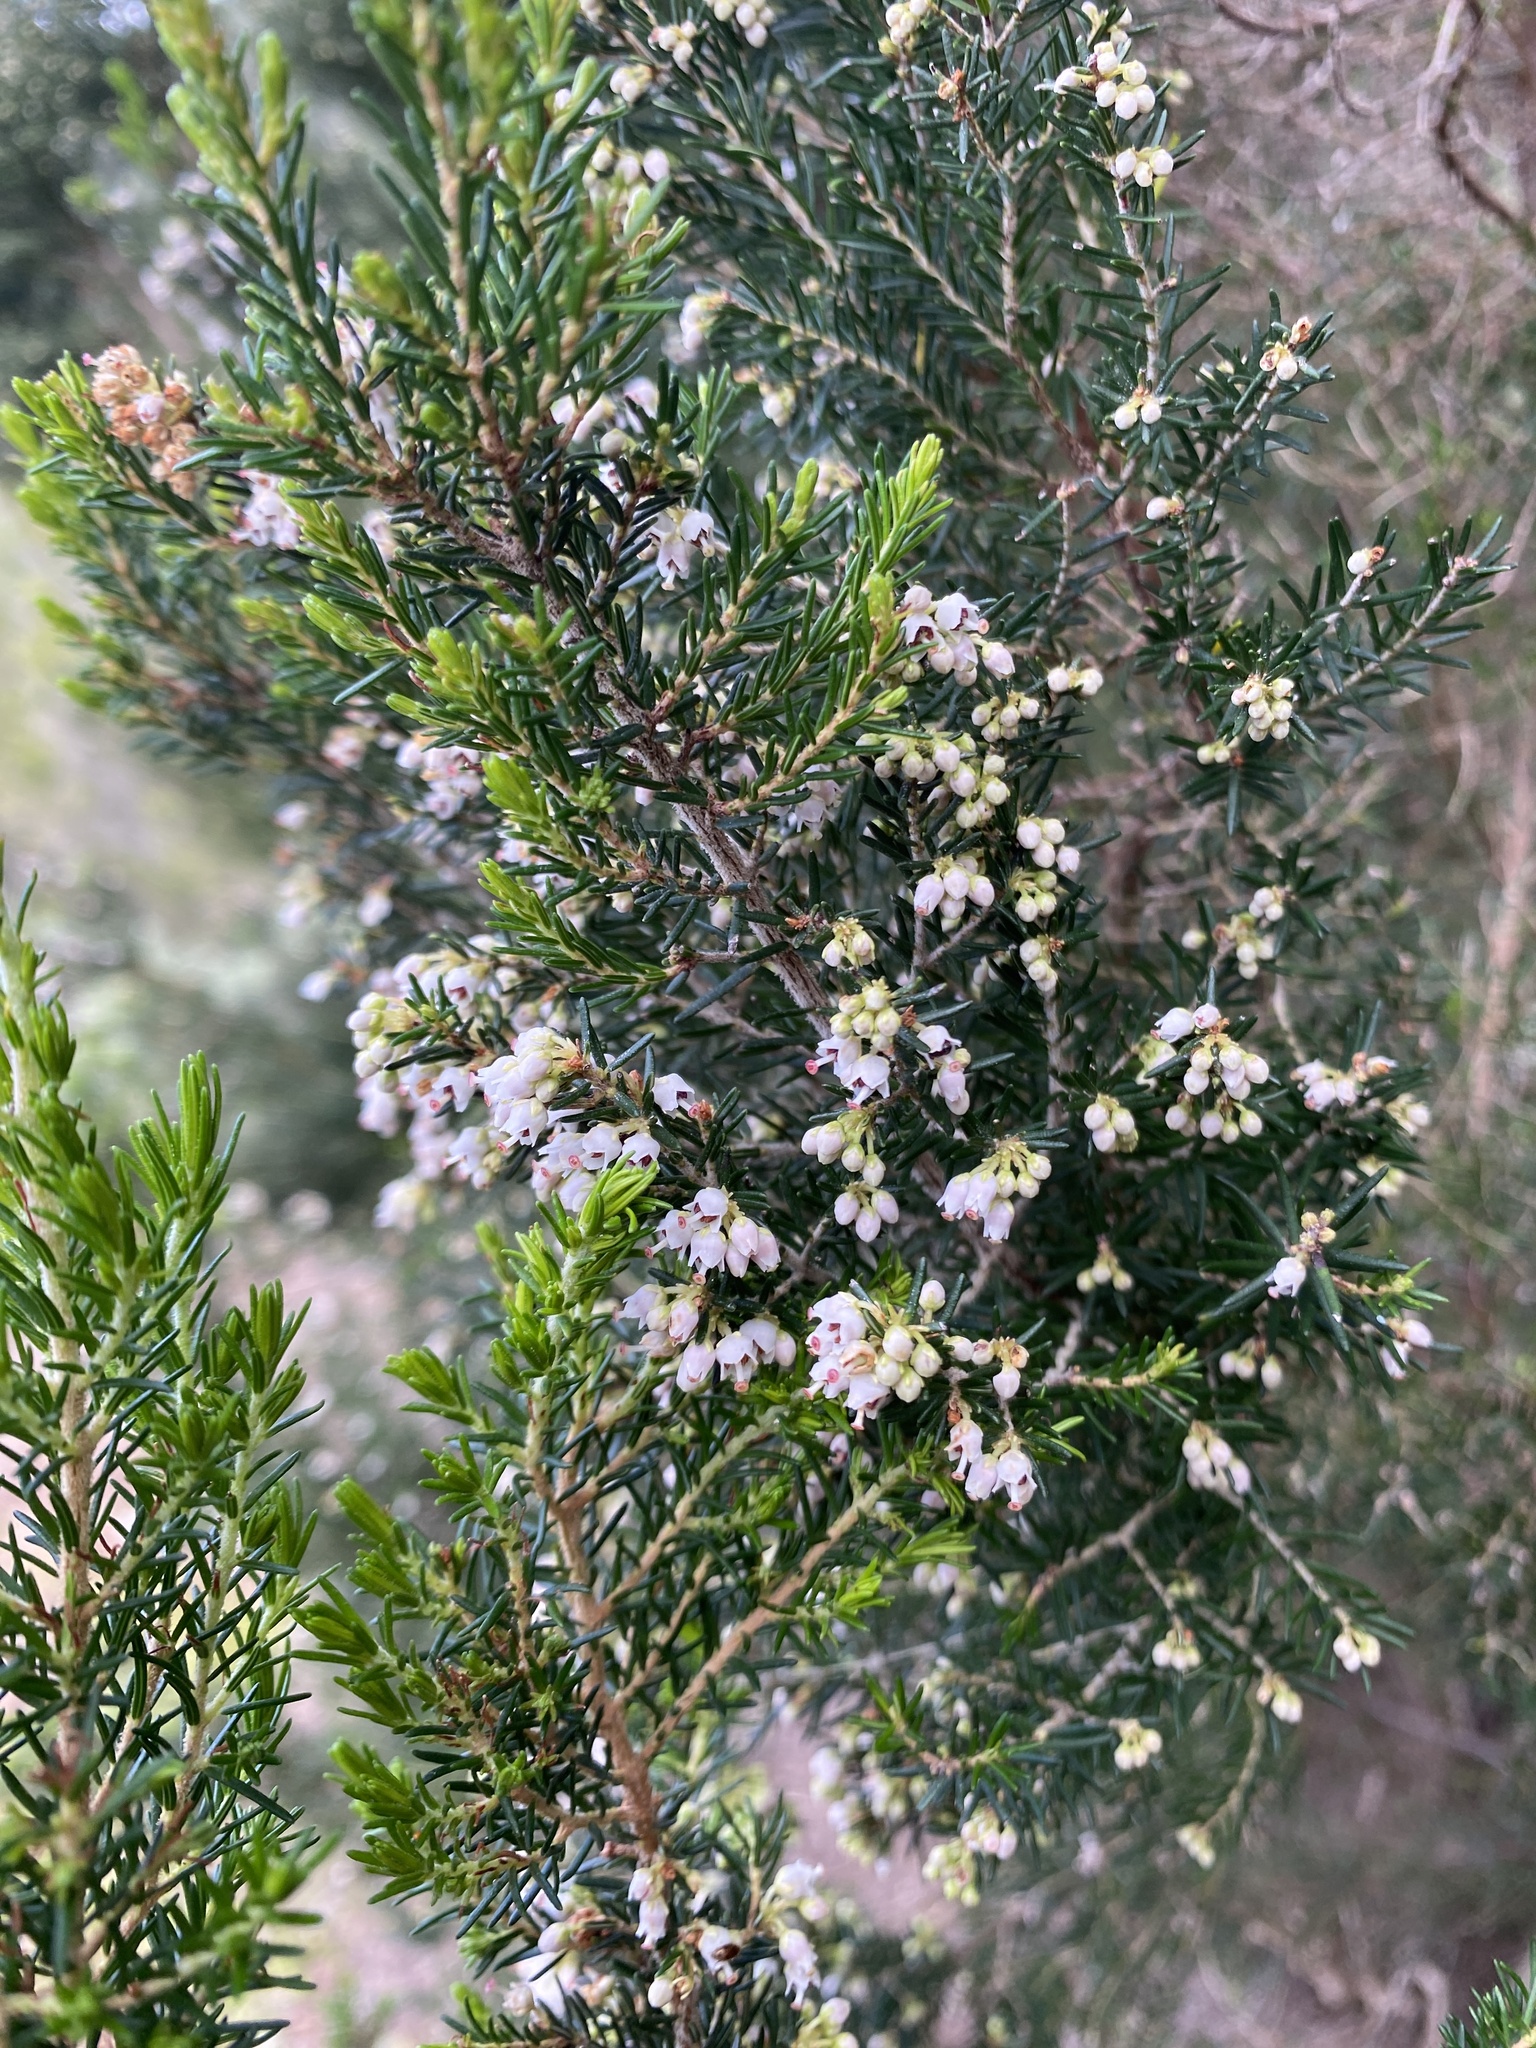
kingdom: Plantae
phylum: Tracheophyta
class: Magnoliopsida
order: Ericales
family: Ericaceae
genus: Erica
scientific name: Erica canariensis
